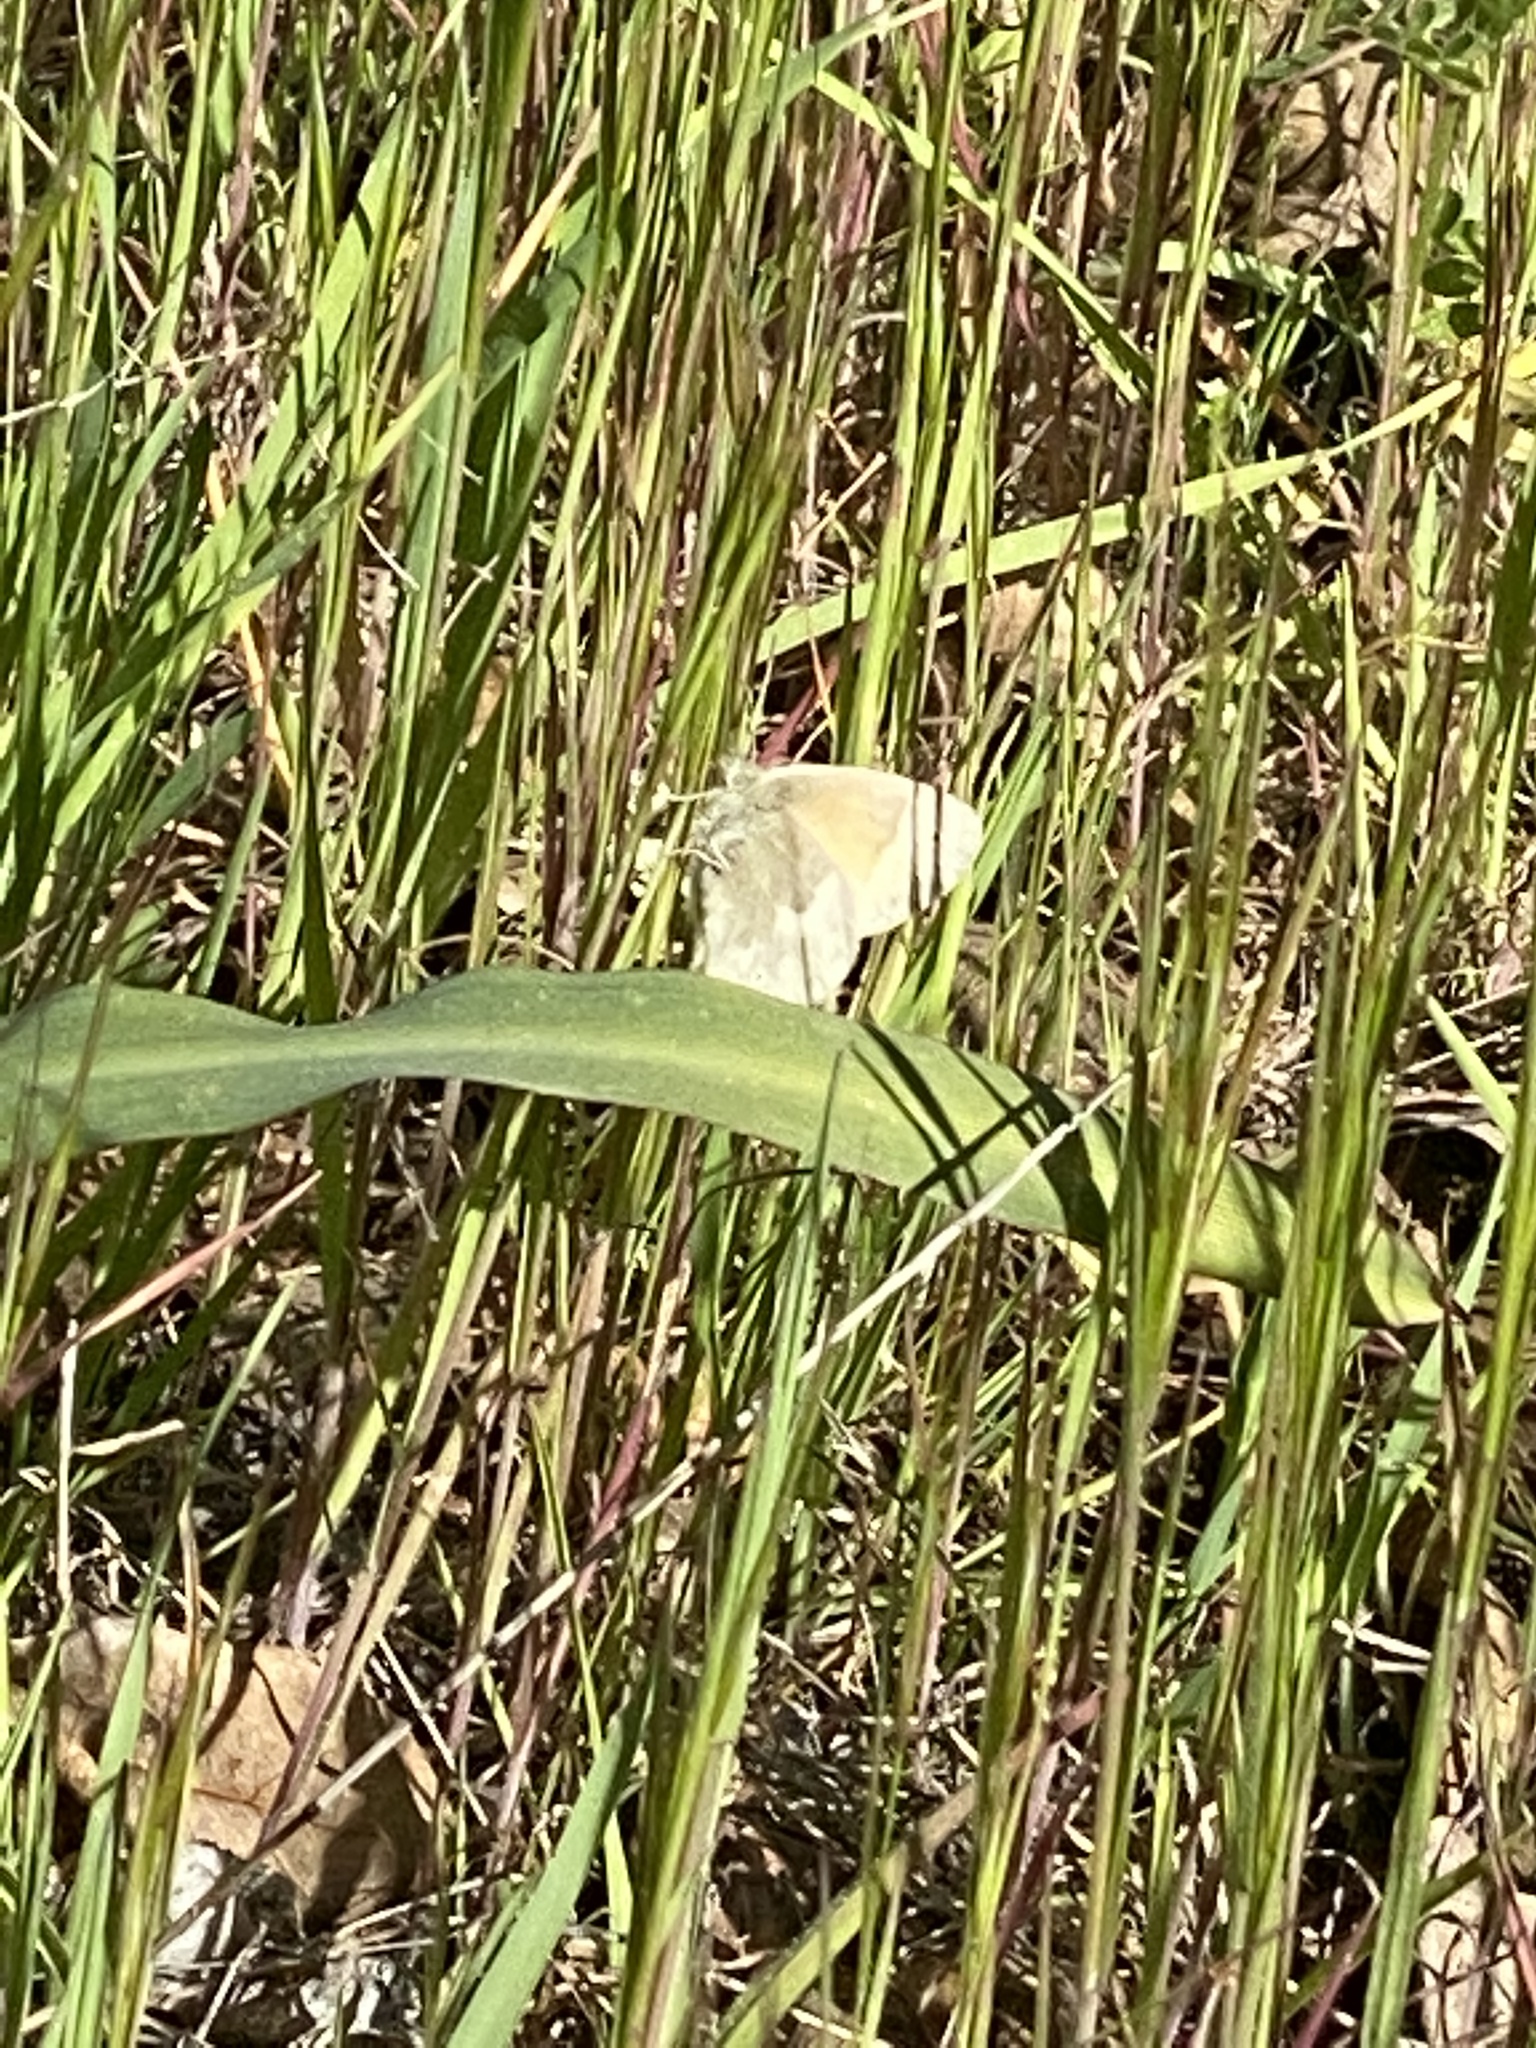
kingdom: Animalia
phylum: Arthropoda
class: Insecta
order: Lepidoptera
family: Nymphalidae
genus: Coenonympha
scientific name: Coenonympha california
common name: Common ringlet
